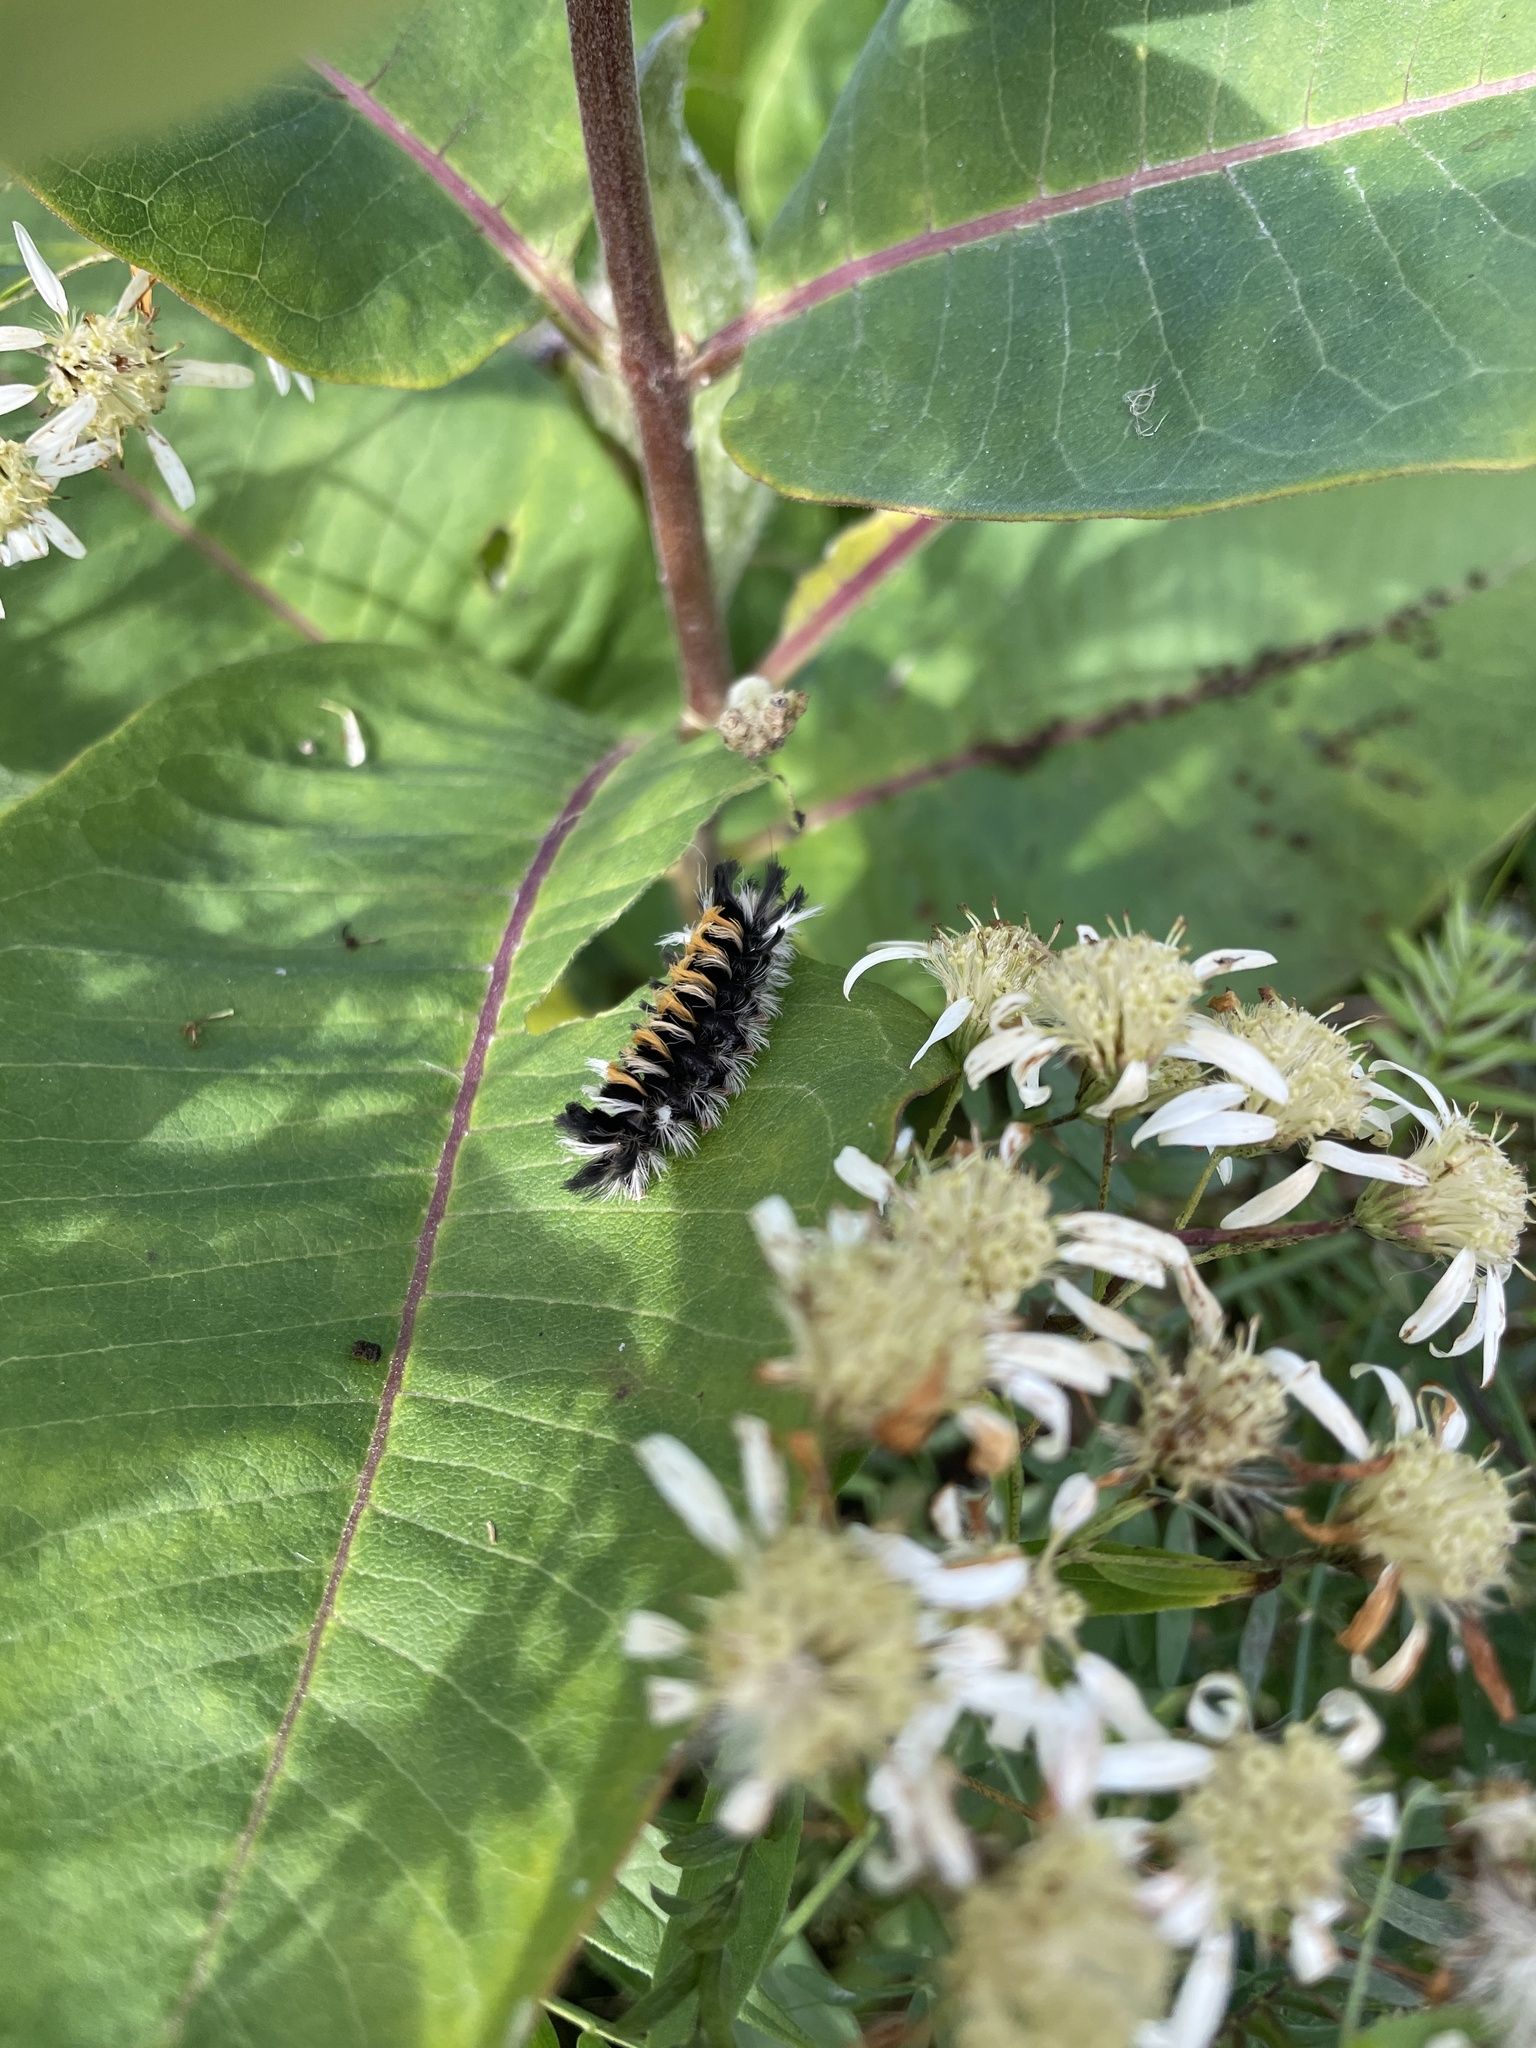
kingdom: Animalia
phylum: Arthropoda
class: Insecta
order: Lepidoptera
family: Erebidae
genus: Euchaetes
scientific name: Euchaetes egle
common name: Milkweed tussock moth
